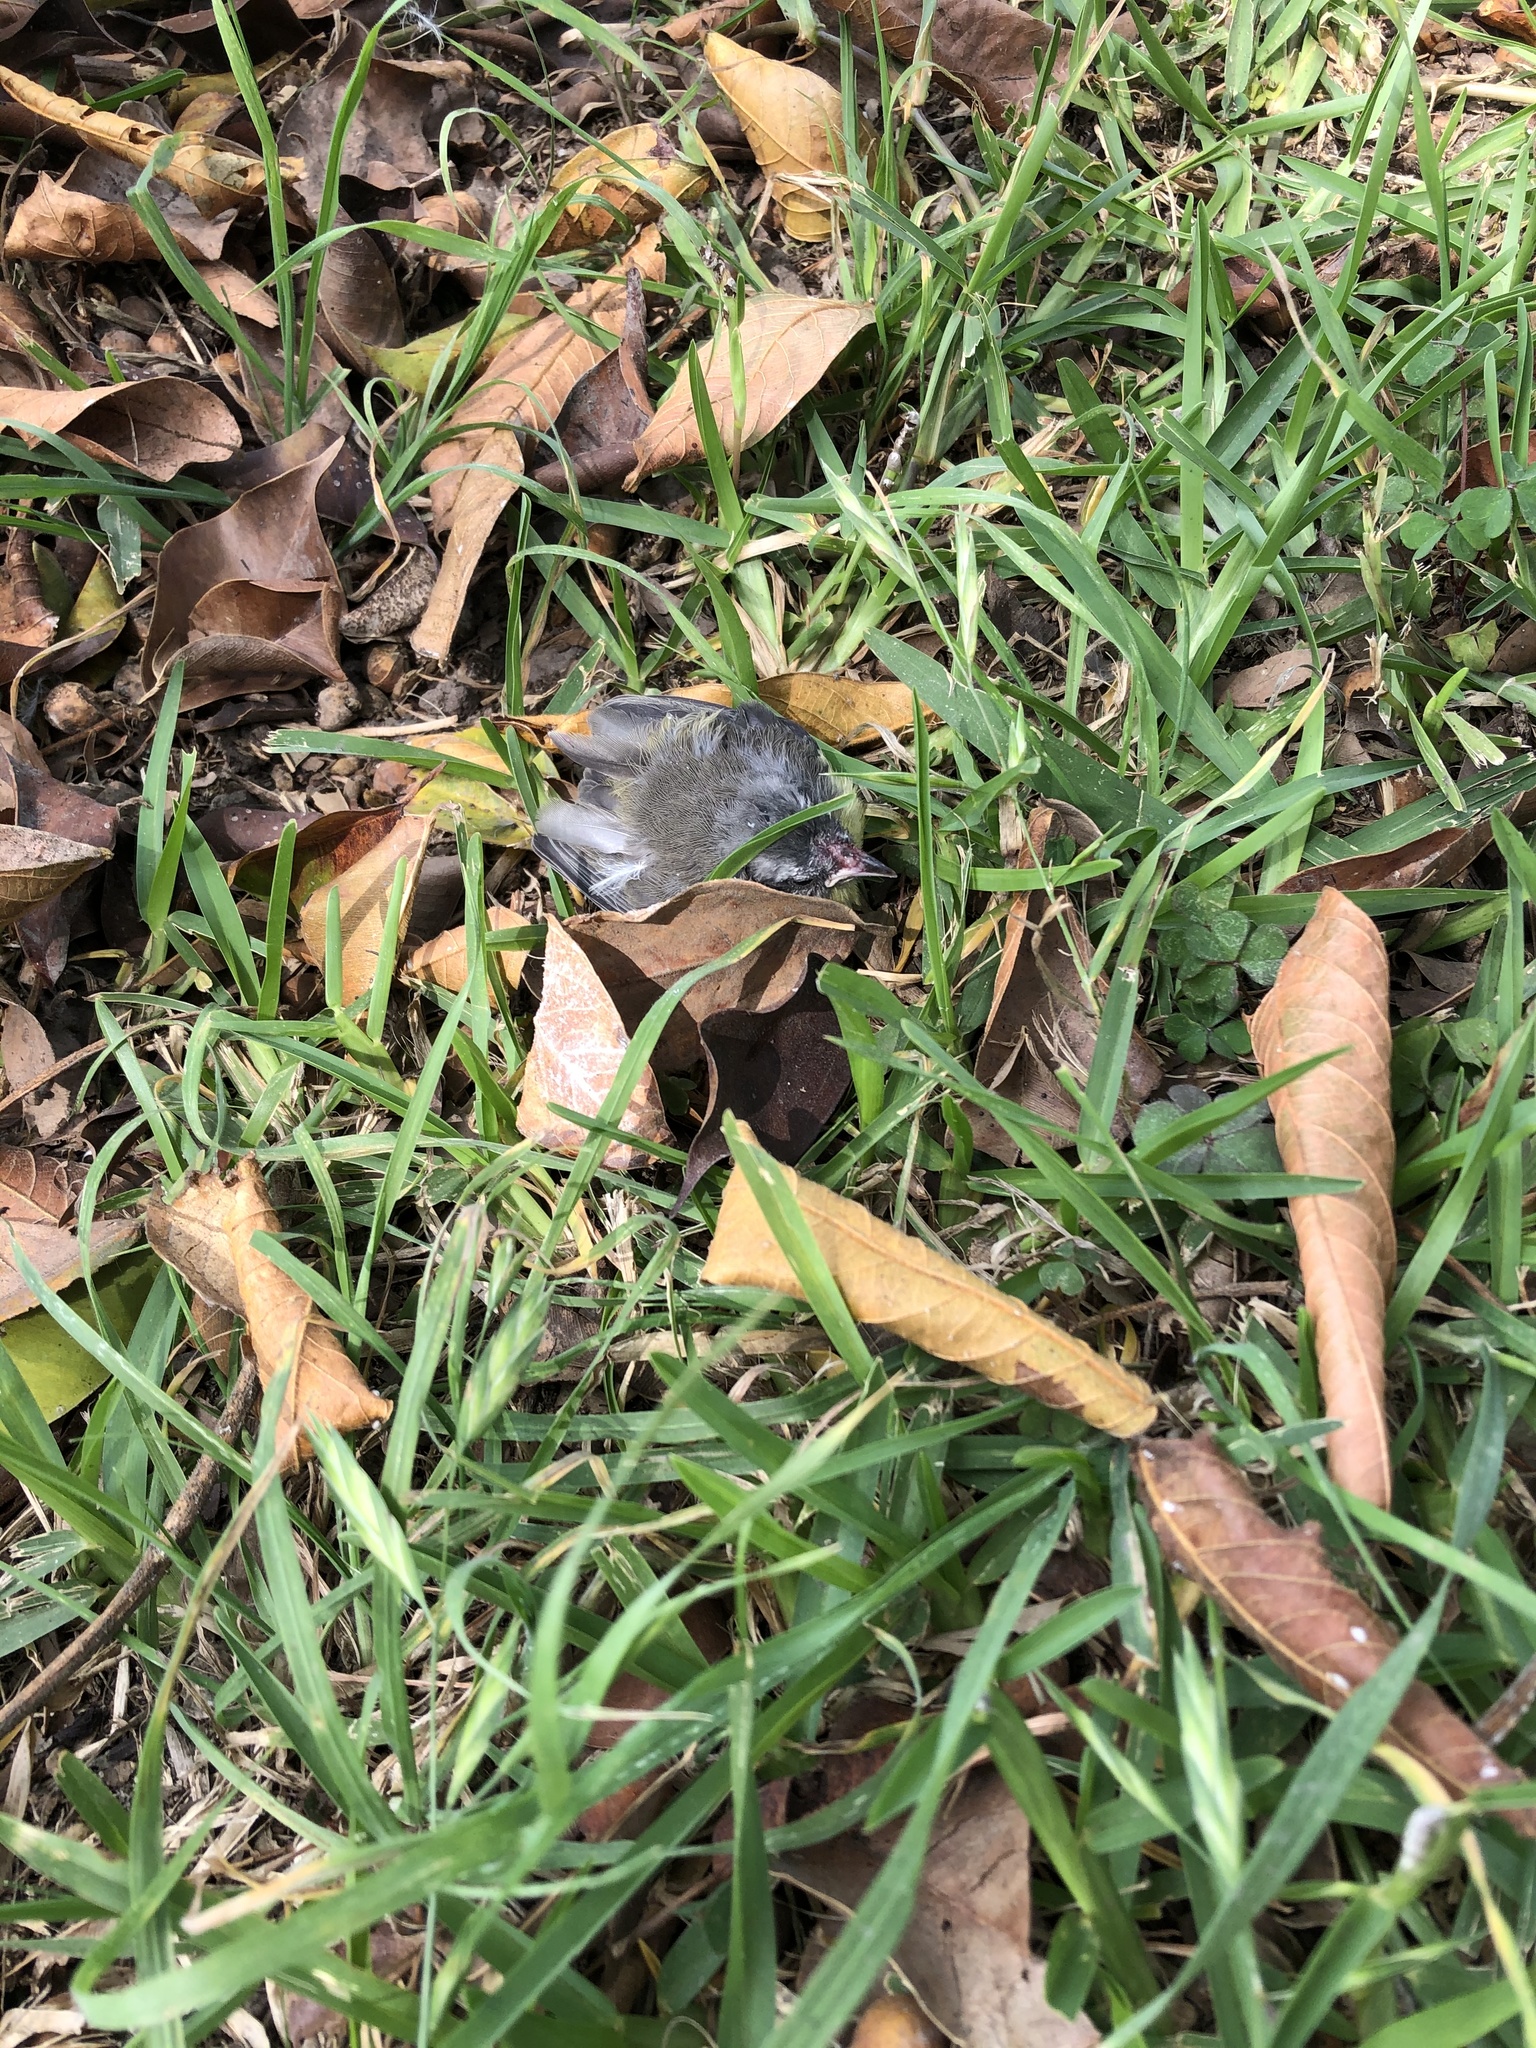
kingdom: Animalia
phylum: Chordata
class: Aves
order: Passeriformes
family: Thraupidae
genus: Coereba
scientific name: Coereba flaveola
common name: Bananaquit
